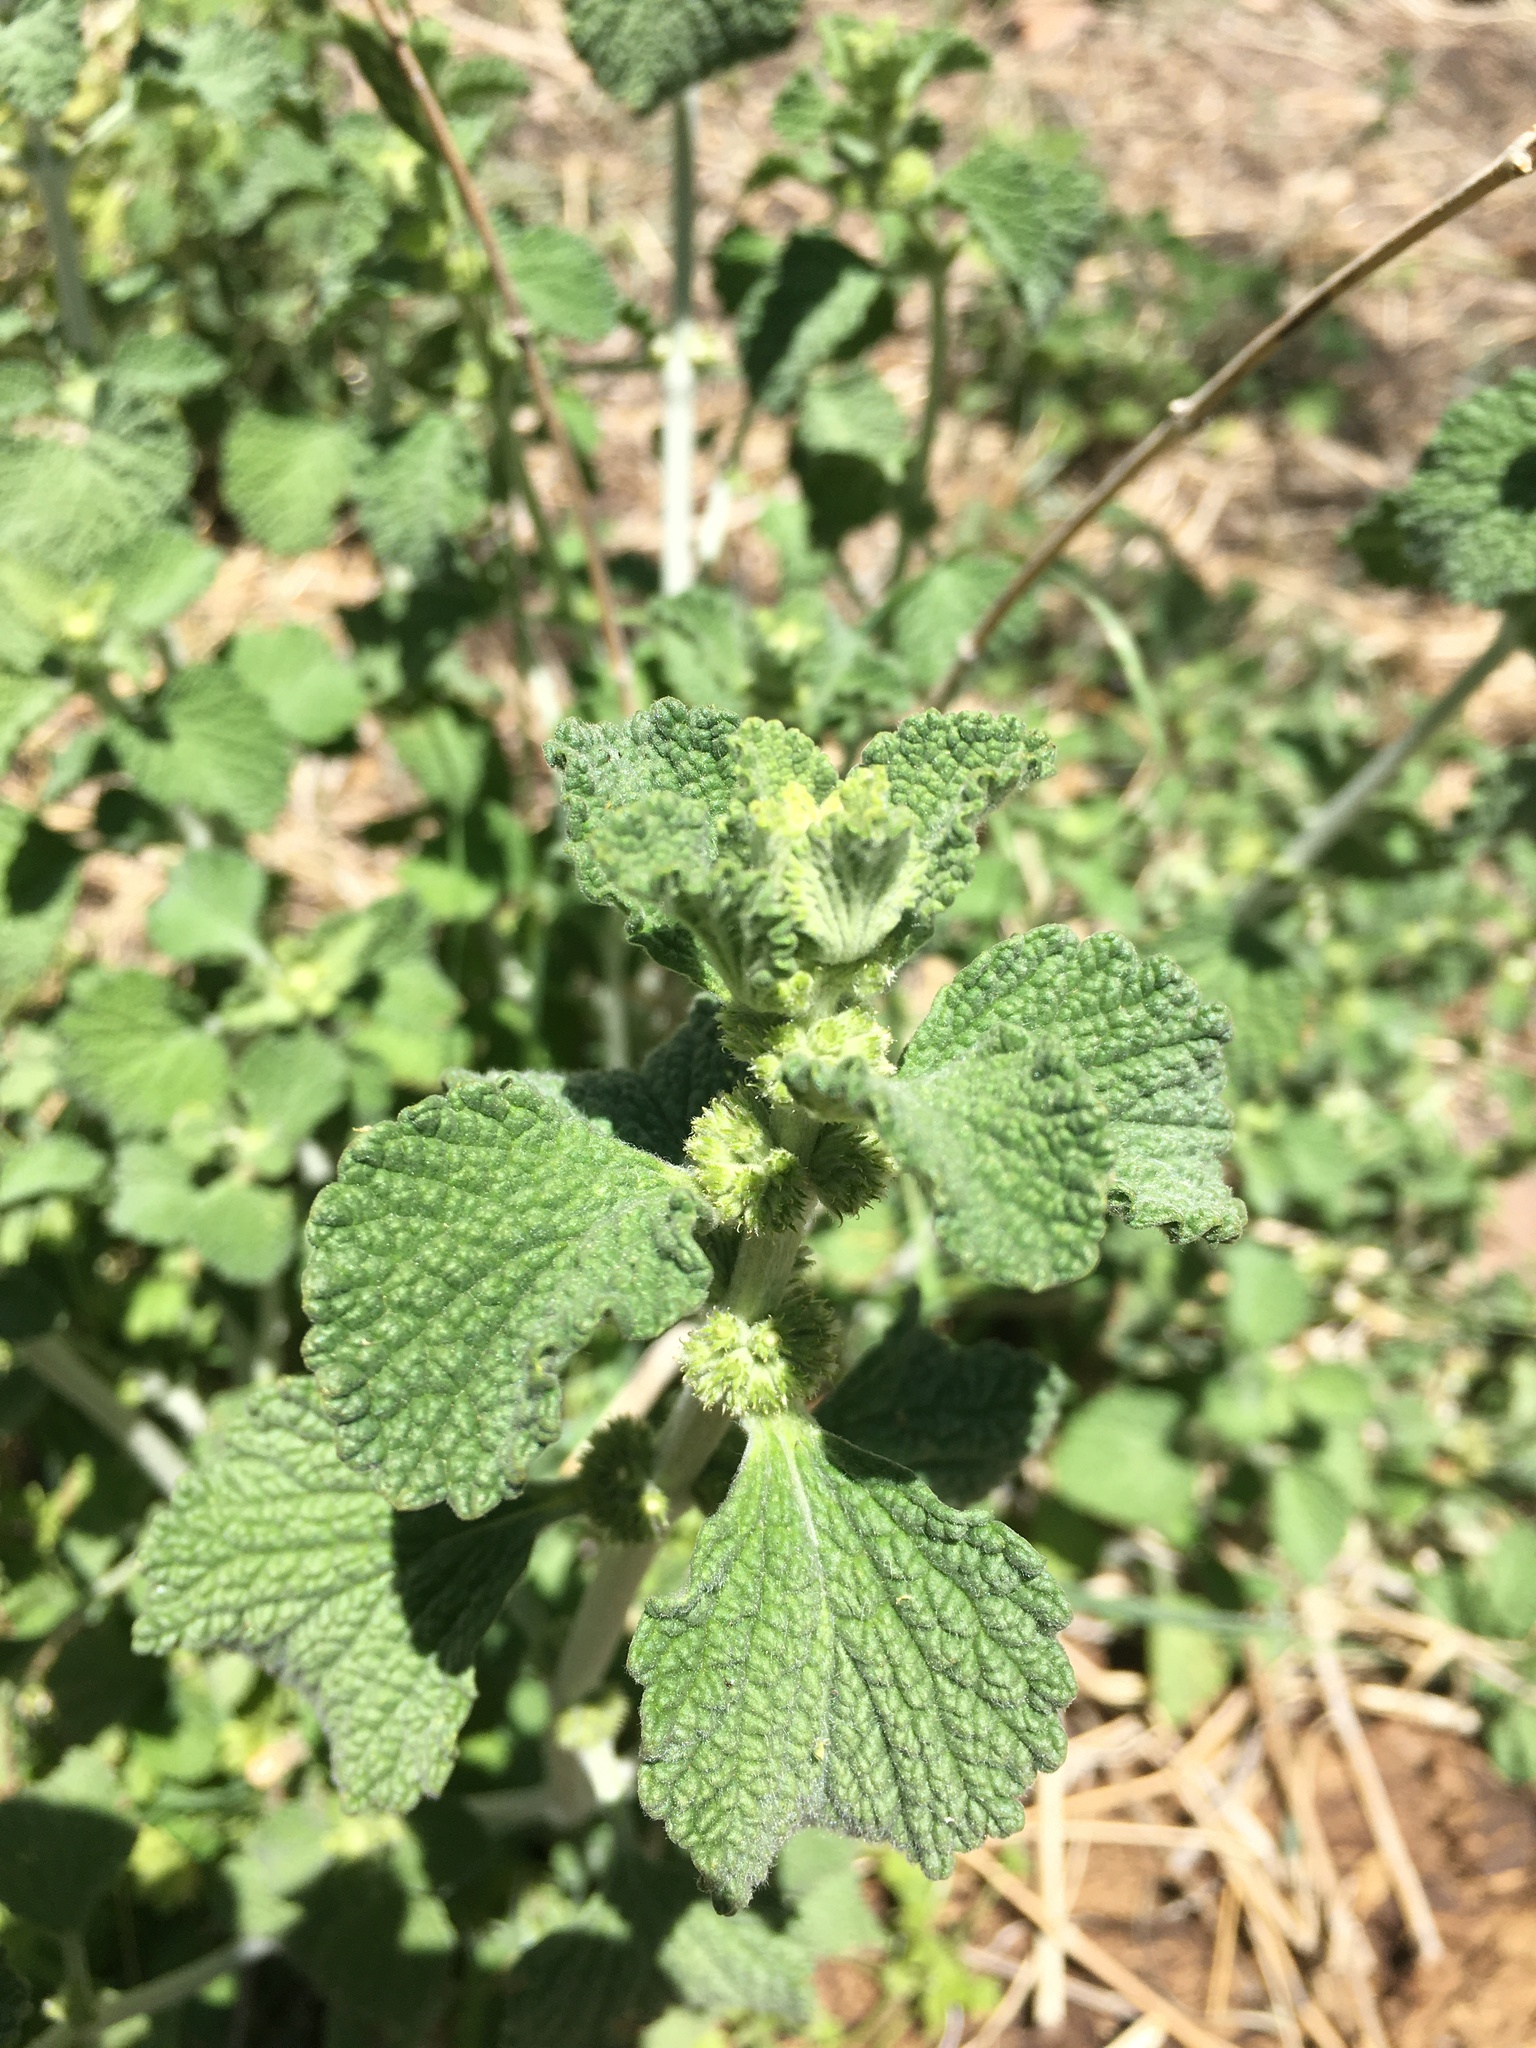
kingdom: Plantae
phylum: Tracheophyta
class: Magnoliopsida
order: Lamiales
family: Lamiaceae
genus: Marrubium
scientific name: Marrubium vulgare
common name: Horehound
